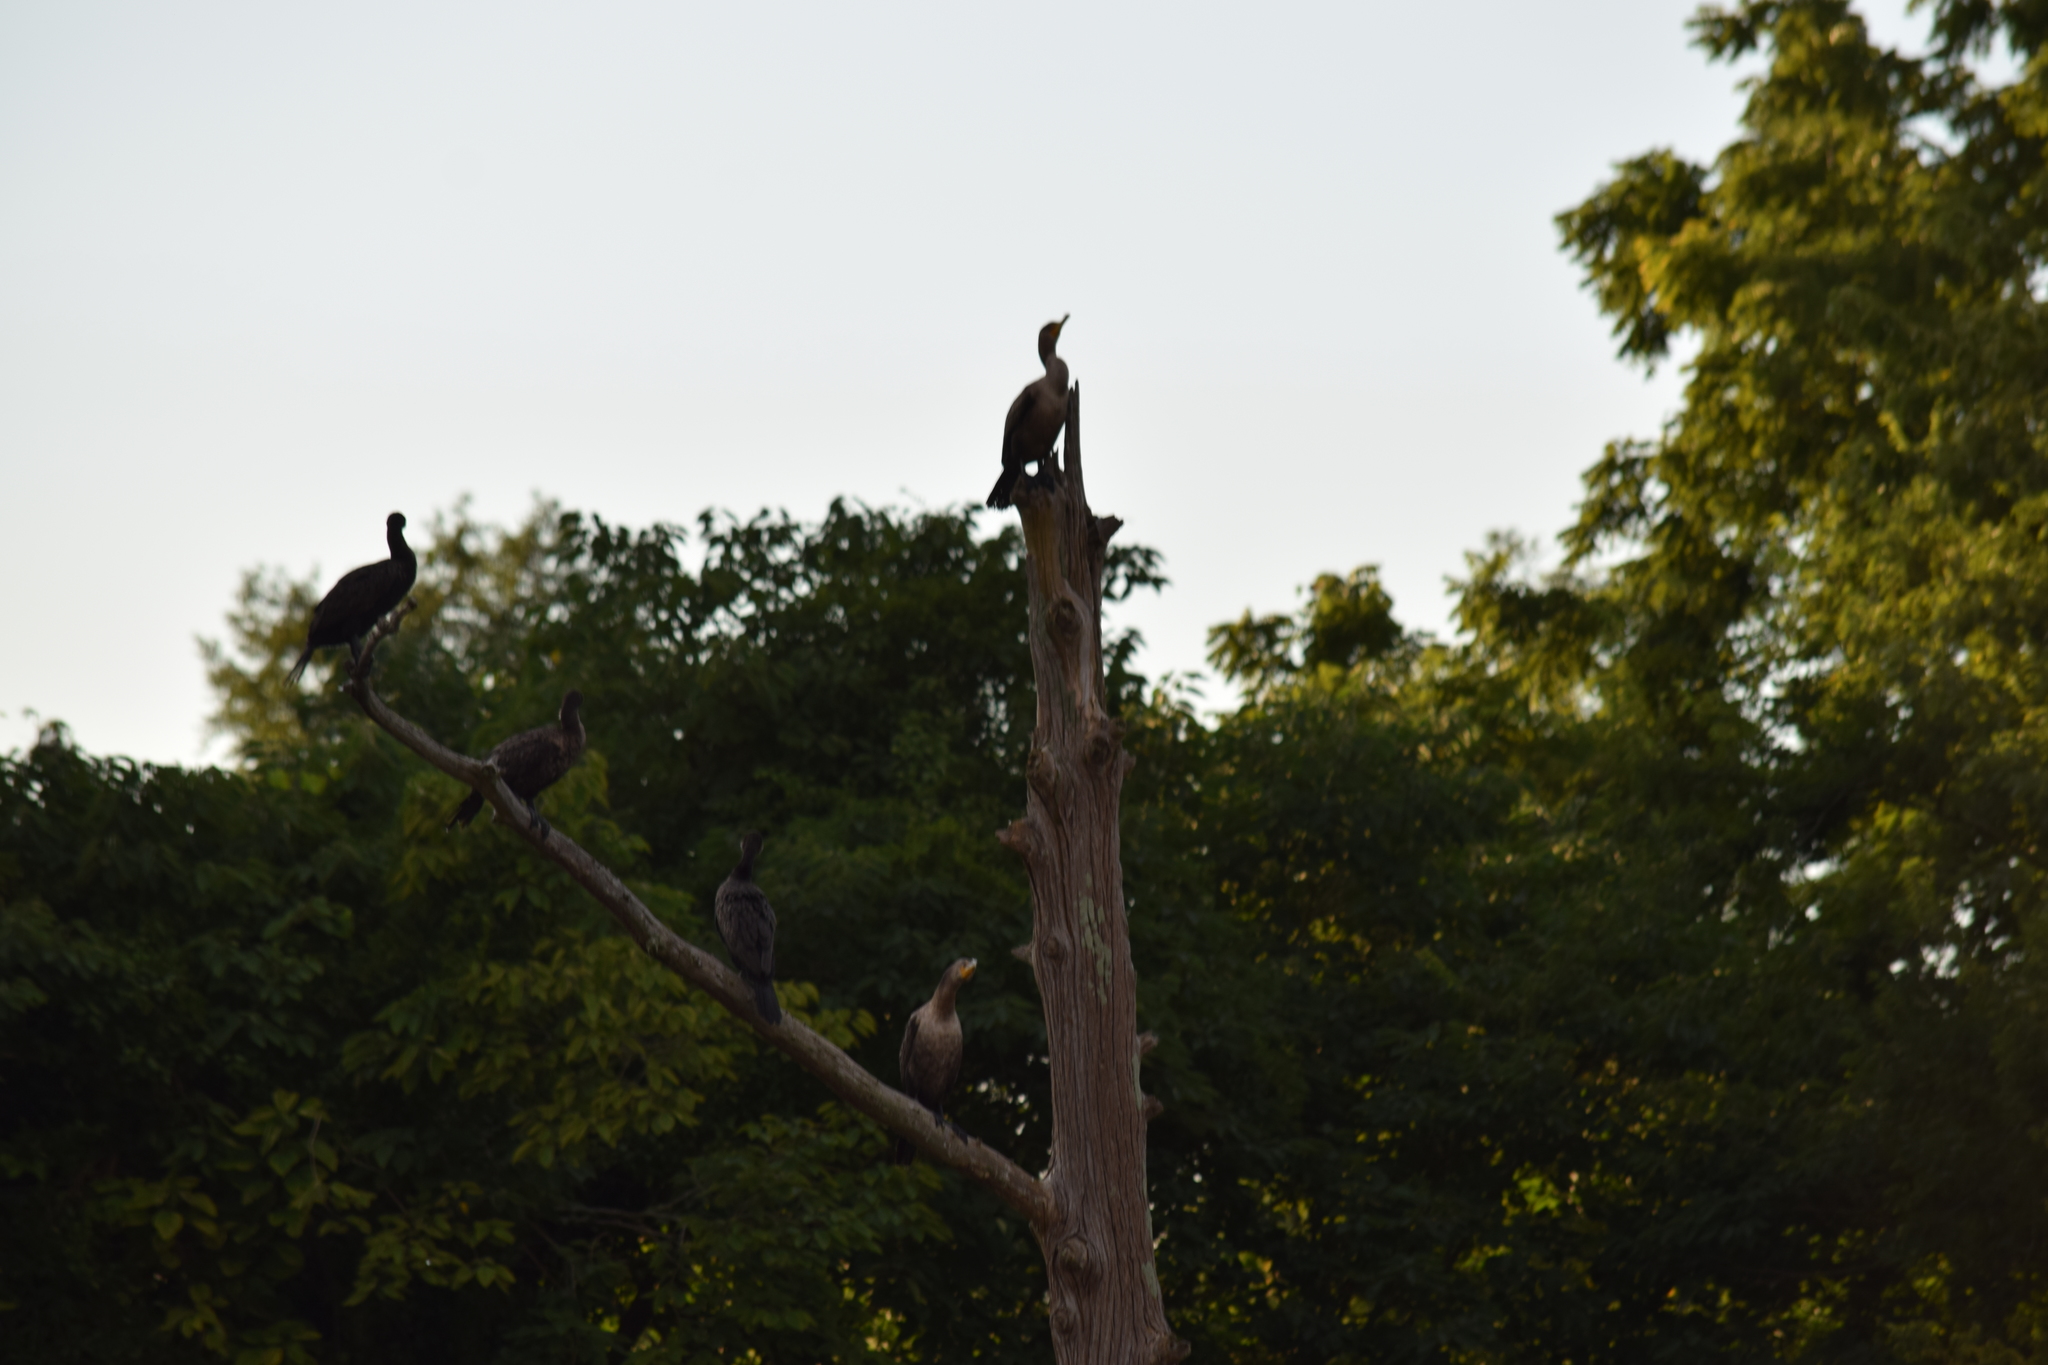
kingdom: Animalia
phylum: Chordata
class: Aves
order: Suliformes
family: Phalacrocoracidae
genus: Phalacrocorax
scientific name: Phalacrocorax auritus
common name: Double-crested cormorant
